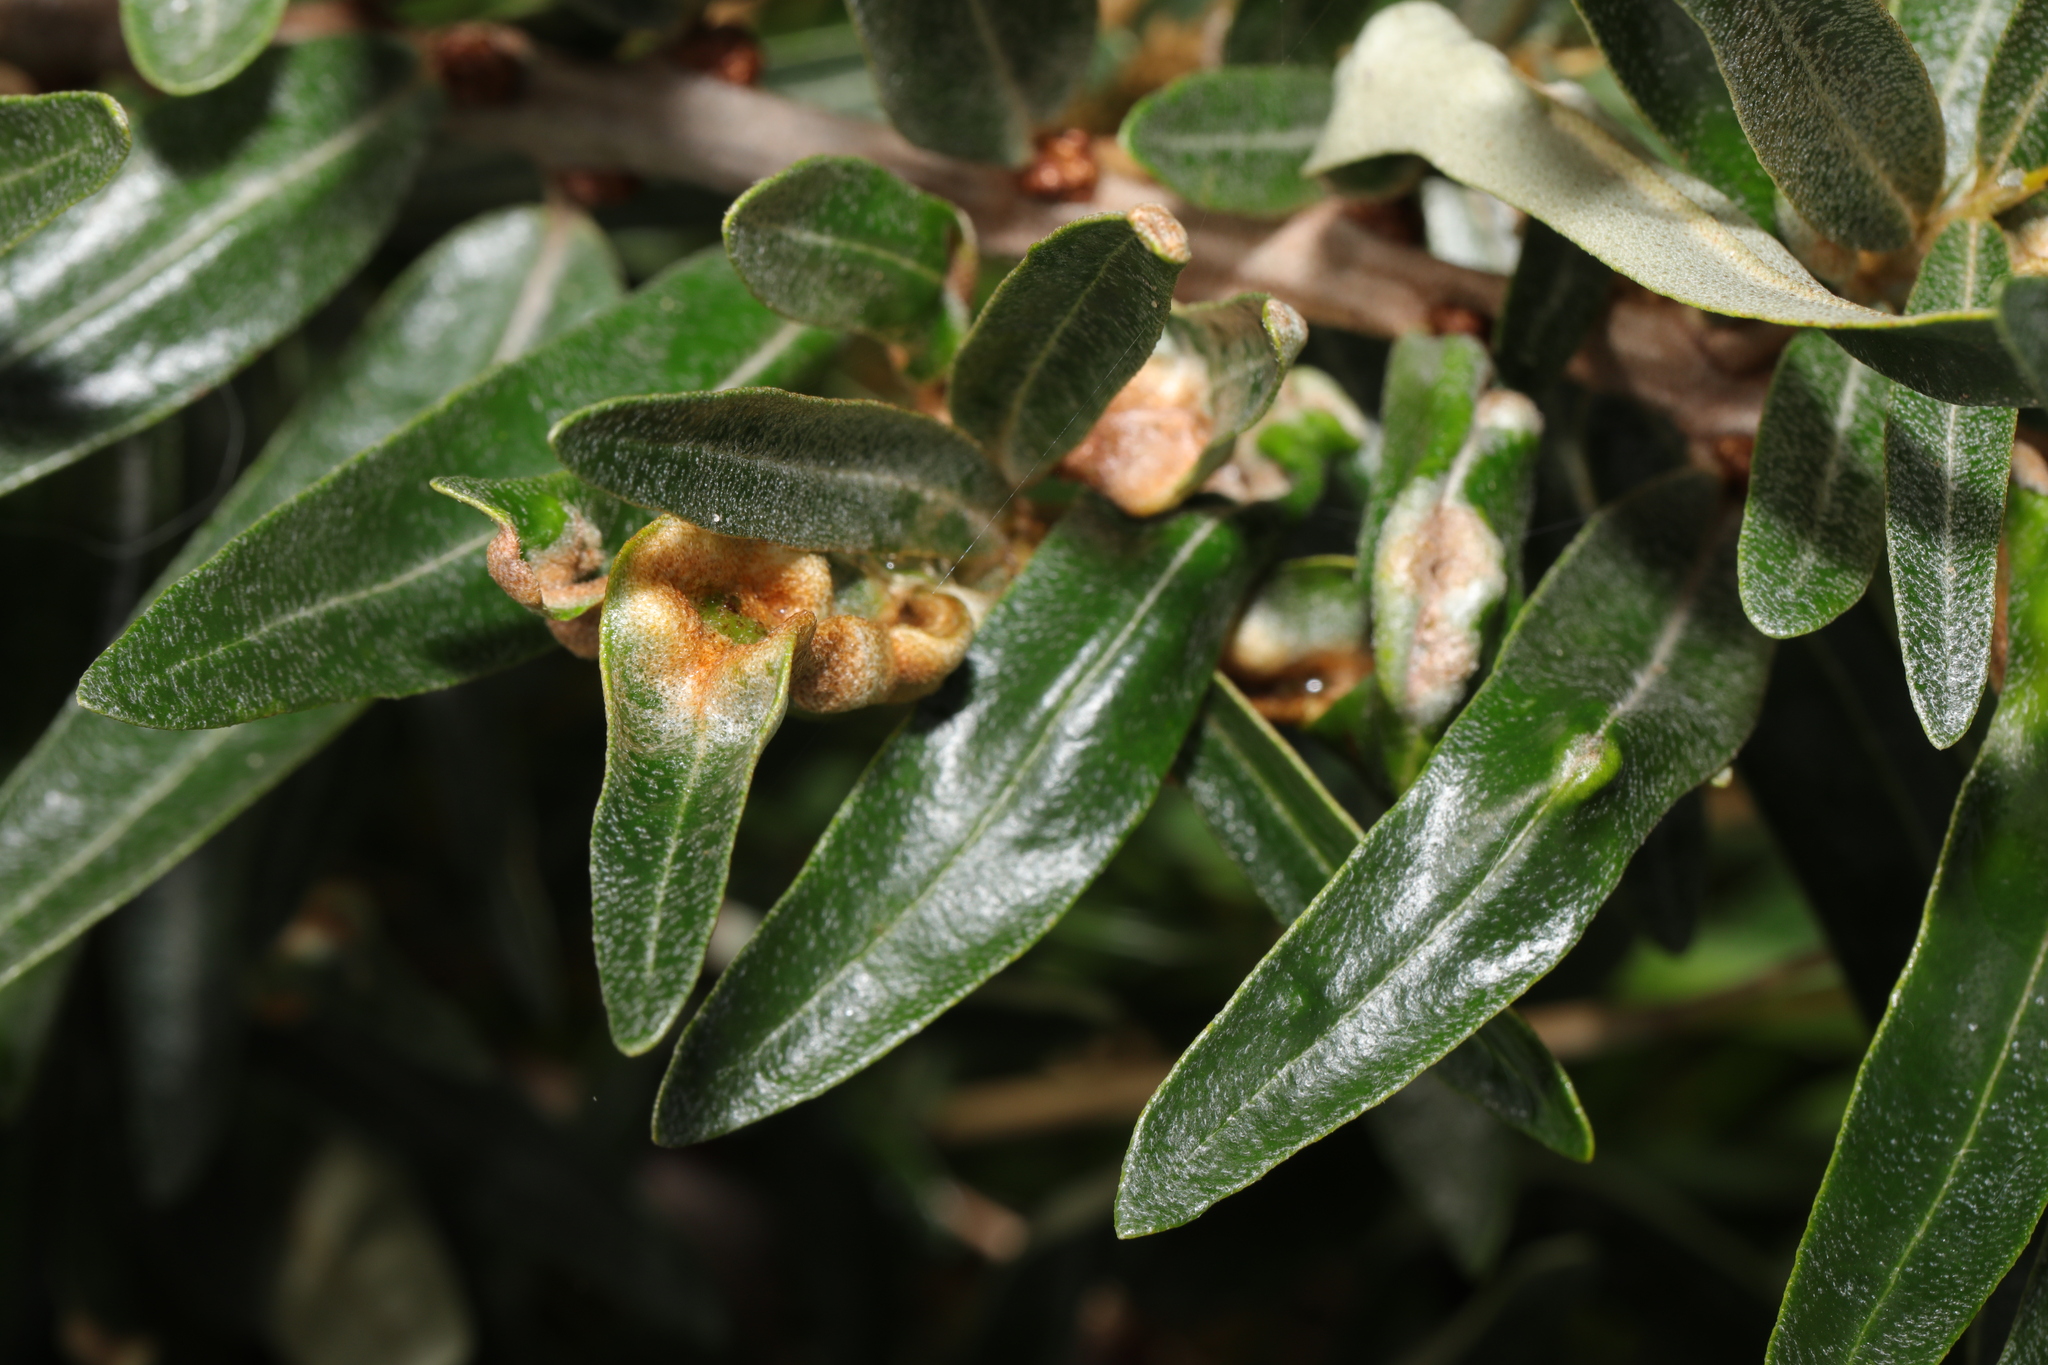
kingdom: Animalia
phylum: Arthropoda
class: Arachnida
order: Trombidiformes
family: Eriophyidae
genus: Aceria
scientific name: Aceria hippophaena
